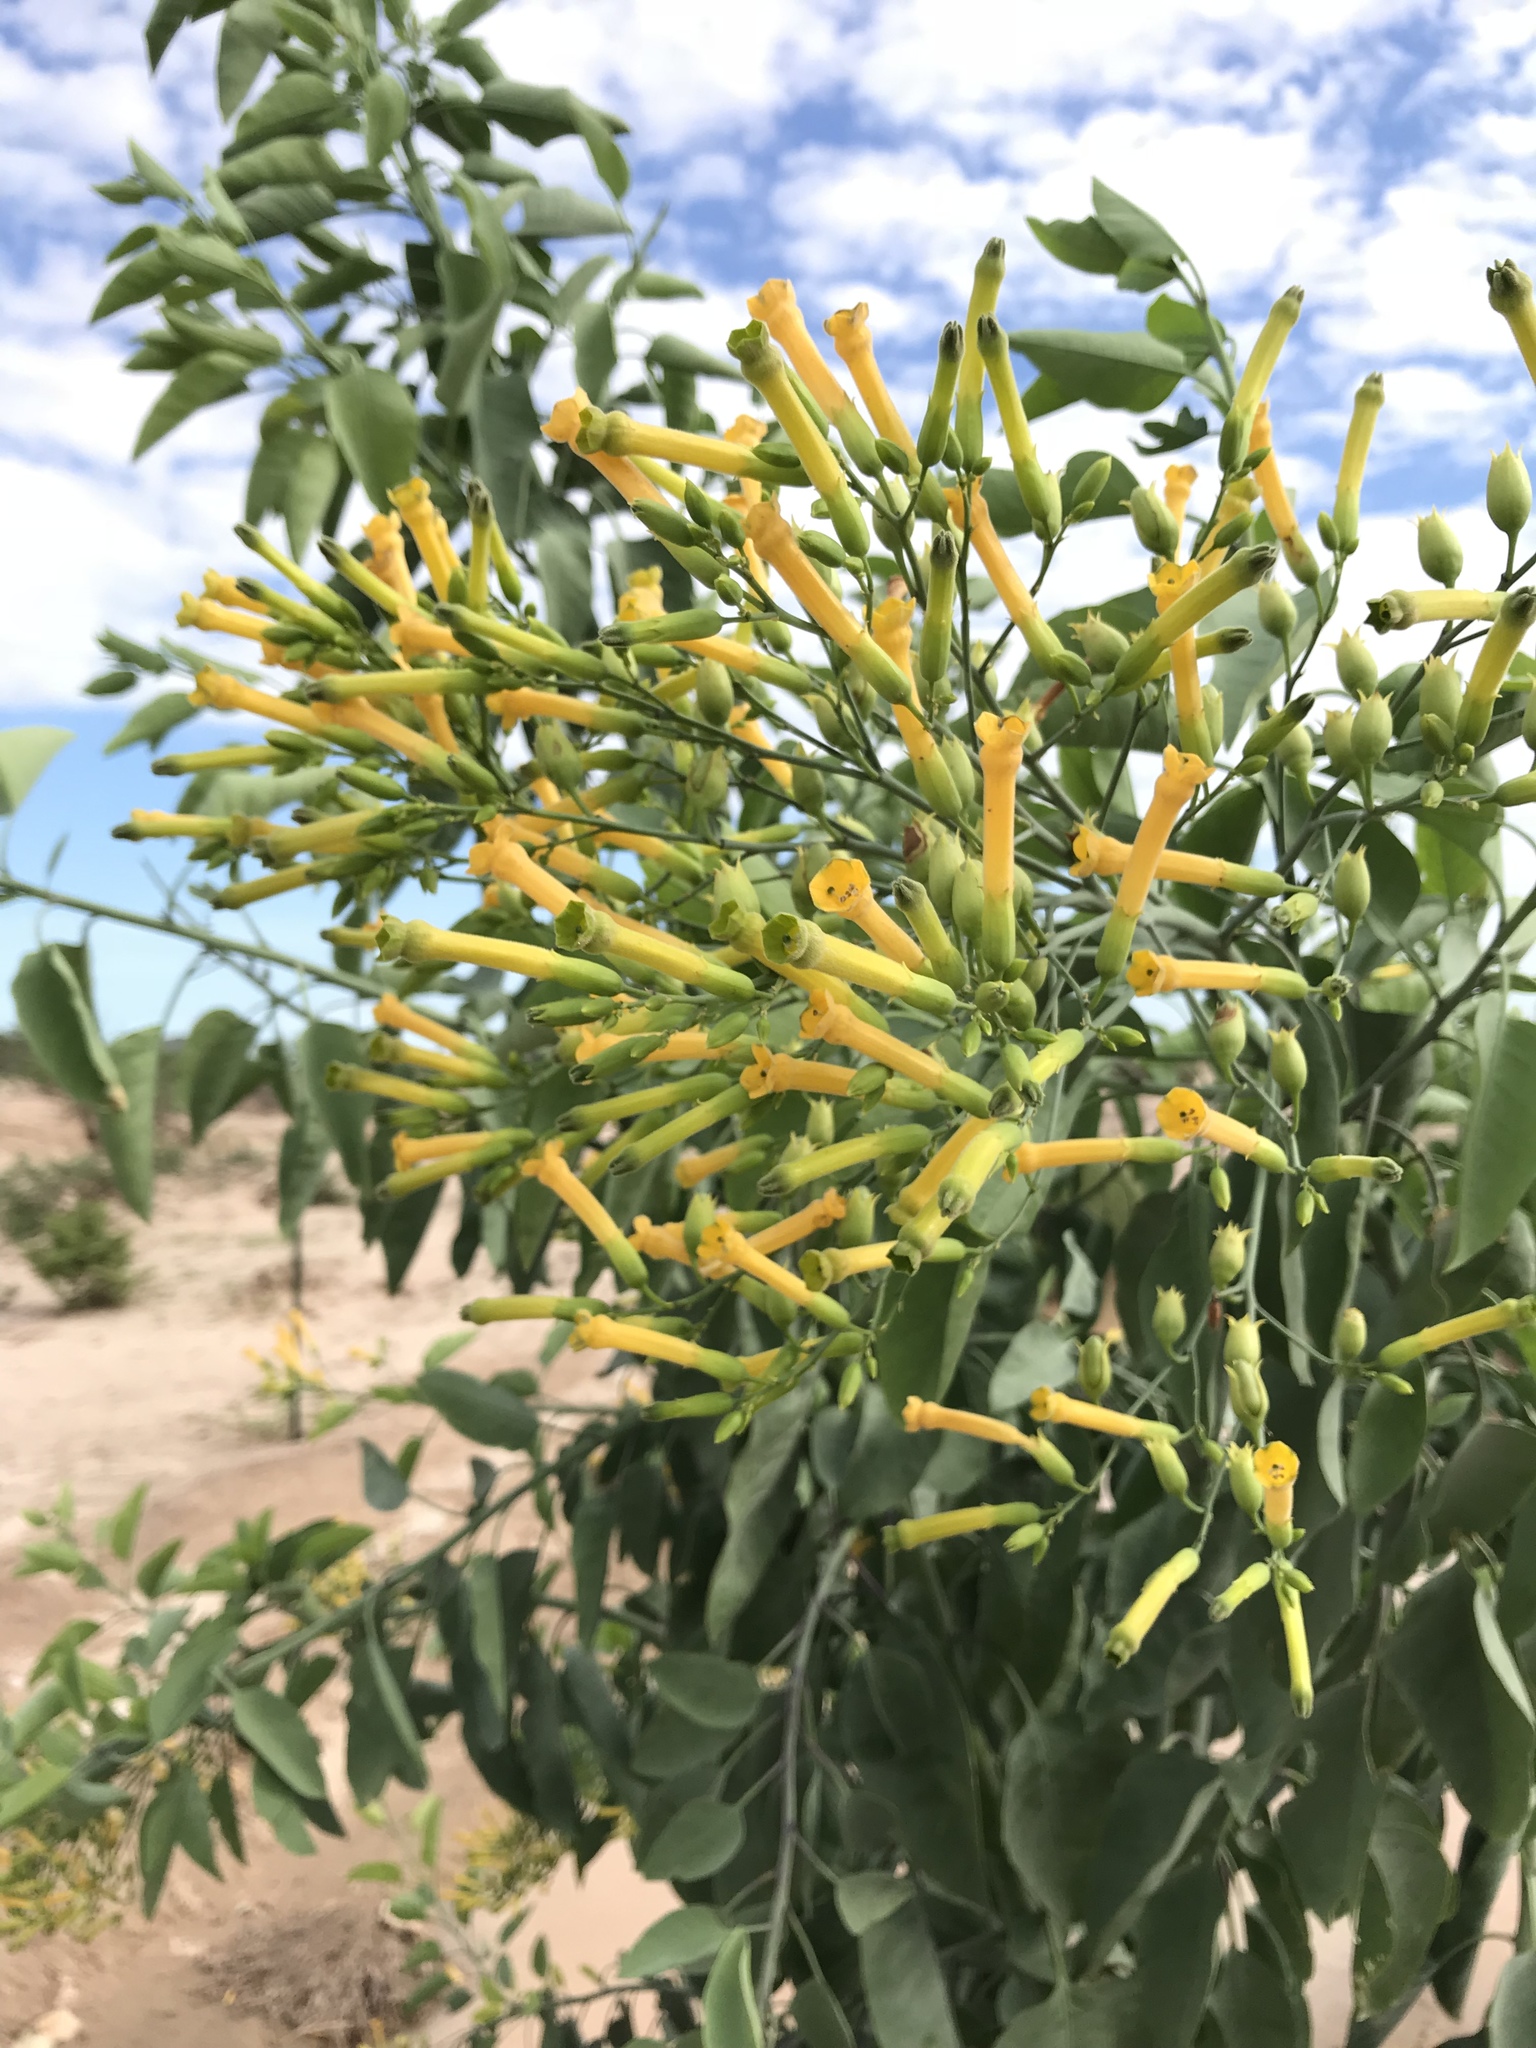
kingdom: Plantae
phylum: Tracheophyta
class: Magnoliopsida
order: Solanales
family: Solanaceae
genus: Nicotiana
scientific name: Nicotiana glauca
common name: Tree tobacco
